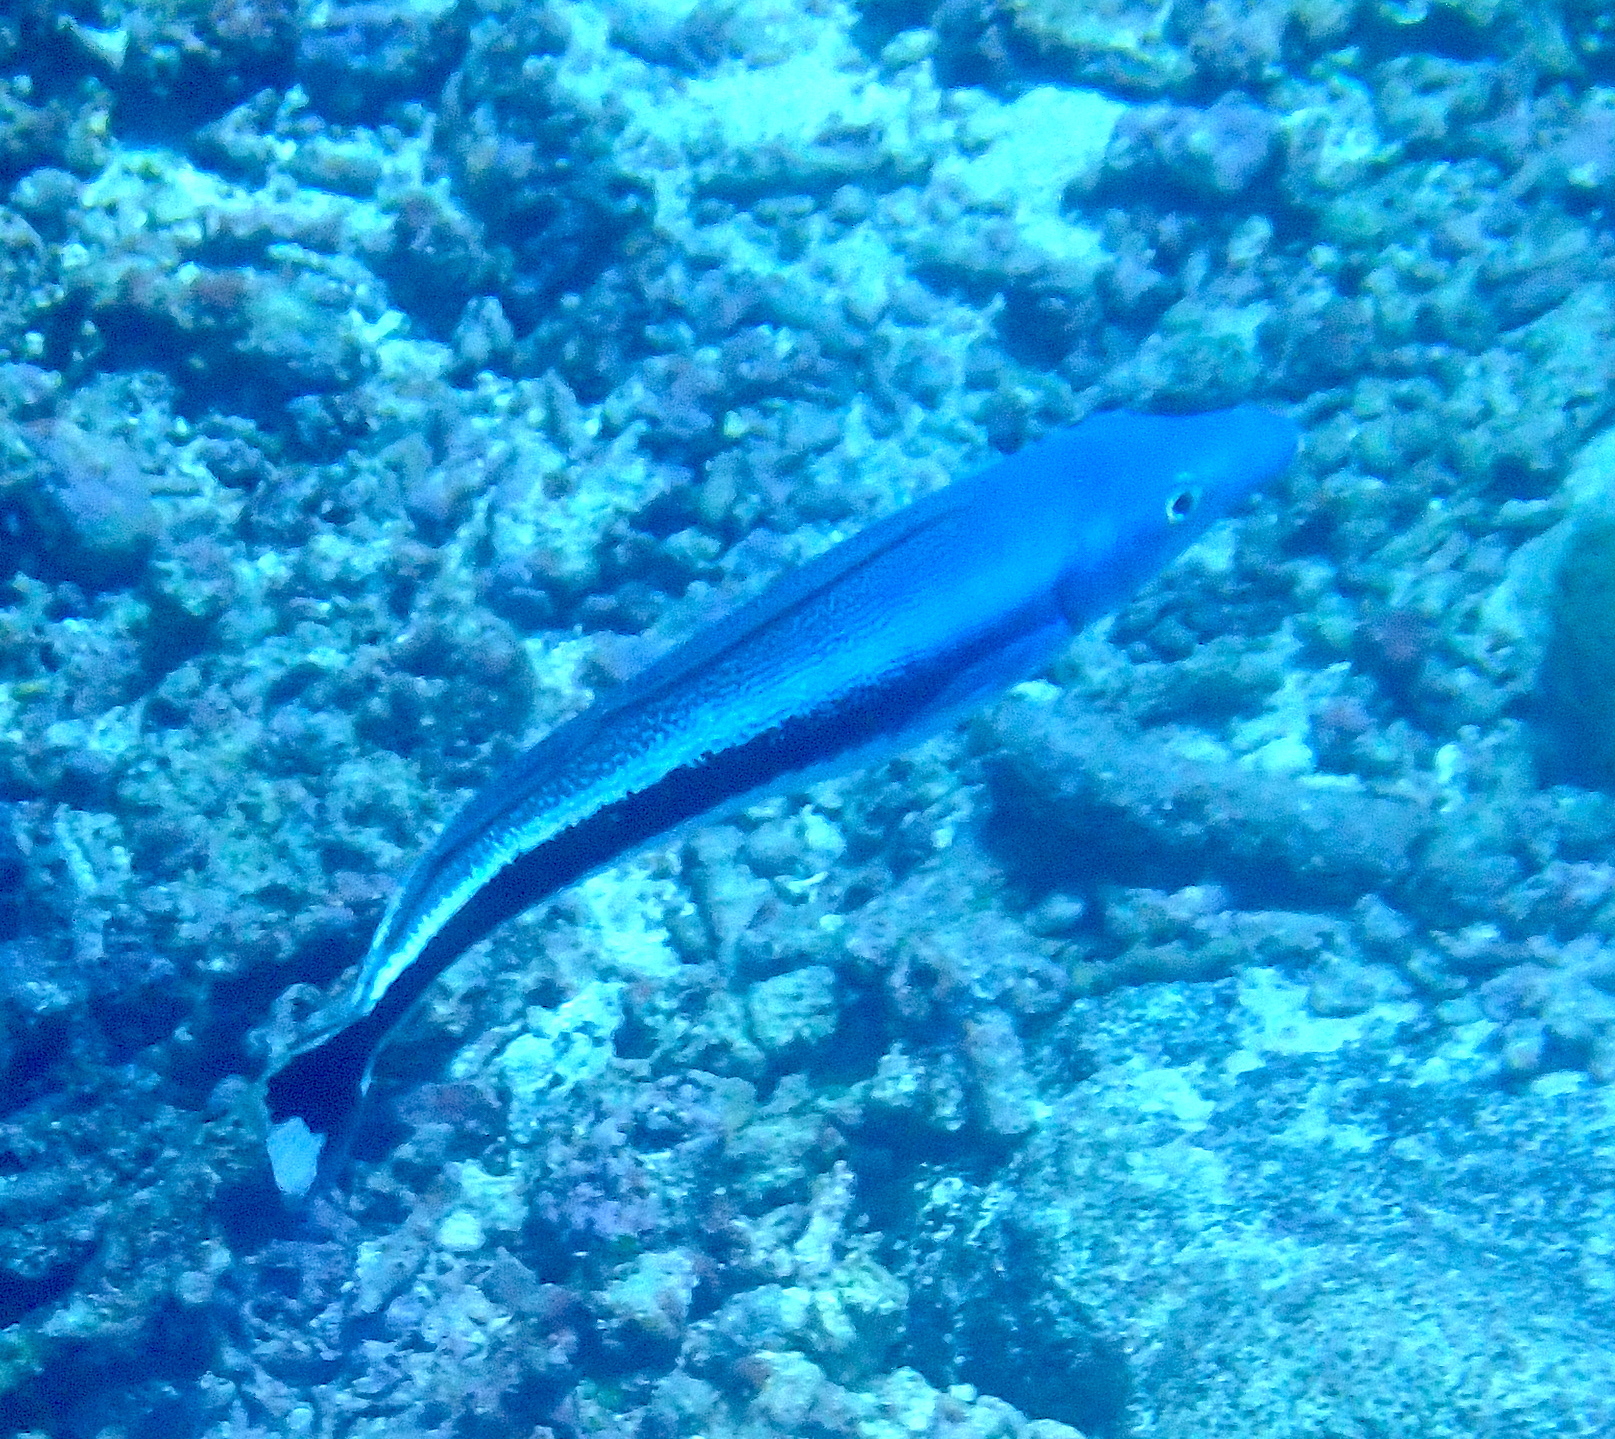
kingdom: Animalia
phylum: Chordata
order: Perciformes
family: Malacanthidae
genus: Malacanthus
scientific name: Malacanthus latovittatus
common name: Blue blanquillo
